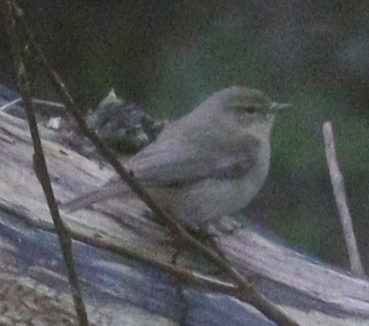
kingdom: Animalia
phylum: Chordata
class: Aves
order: Passeriformes
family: Phylloscopidae
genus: Phylloscopus
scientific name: Phylloscopus collybita
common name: Common chiffchaff
